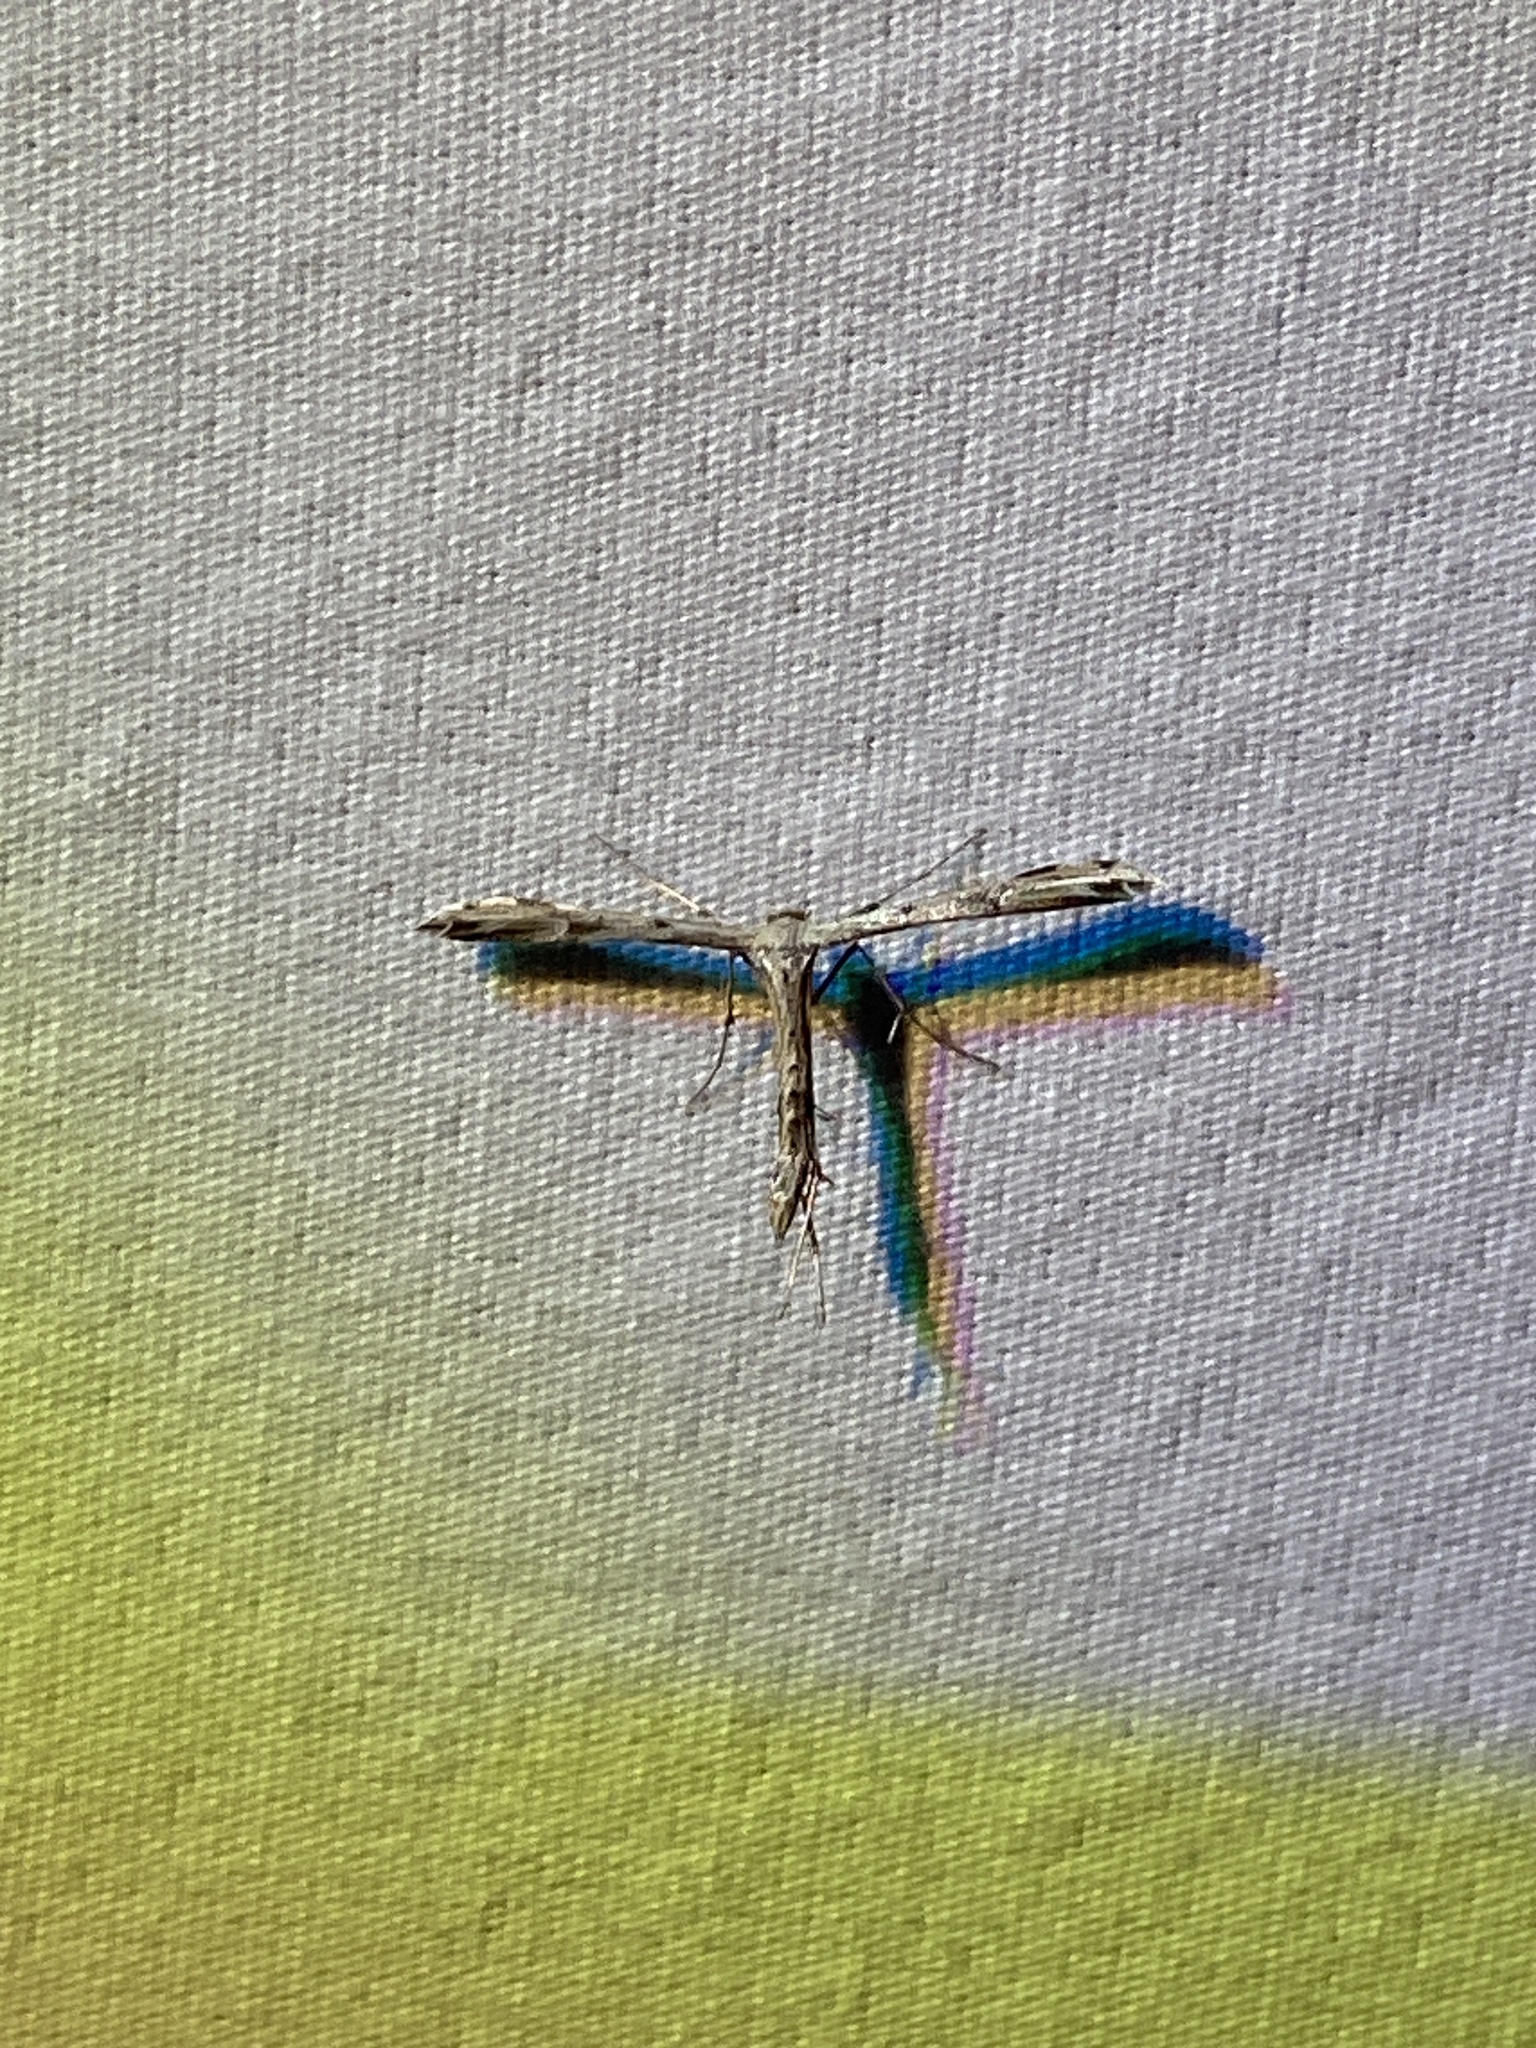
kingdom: Animalia
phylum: Arthropoda
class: Insecta
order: Lepidoptera
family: Pterophoridae
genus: Adaina
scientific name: Adaina ambrosiae
